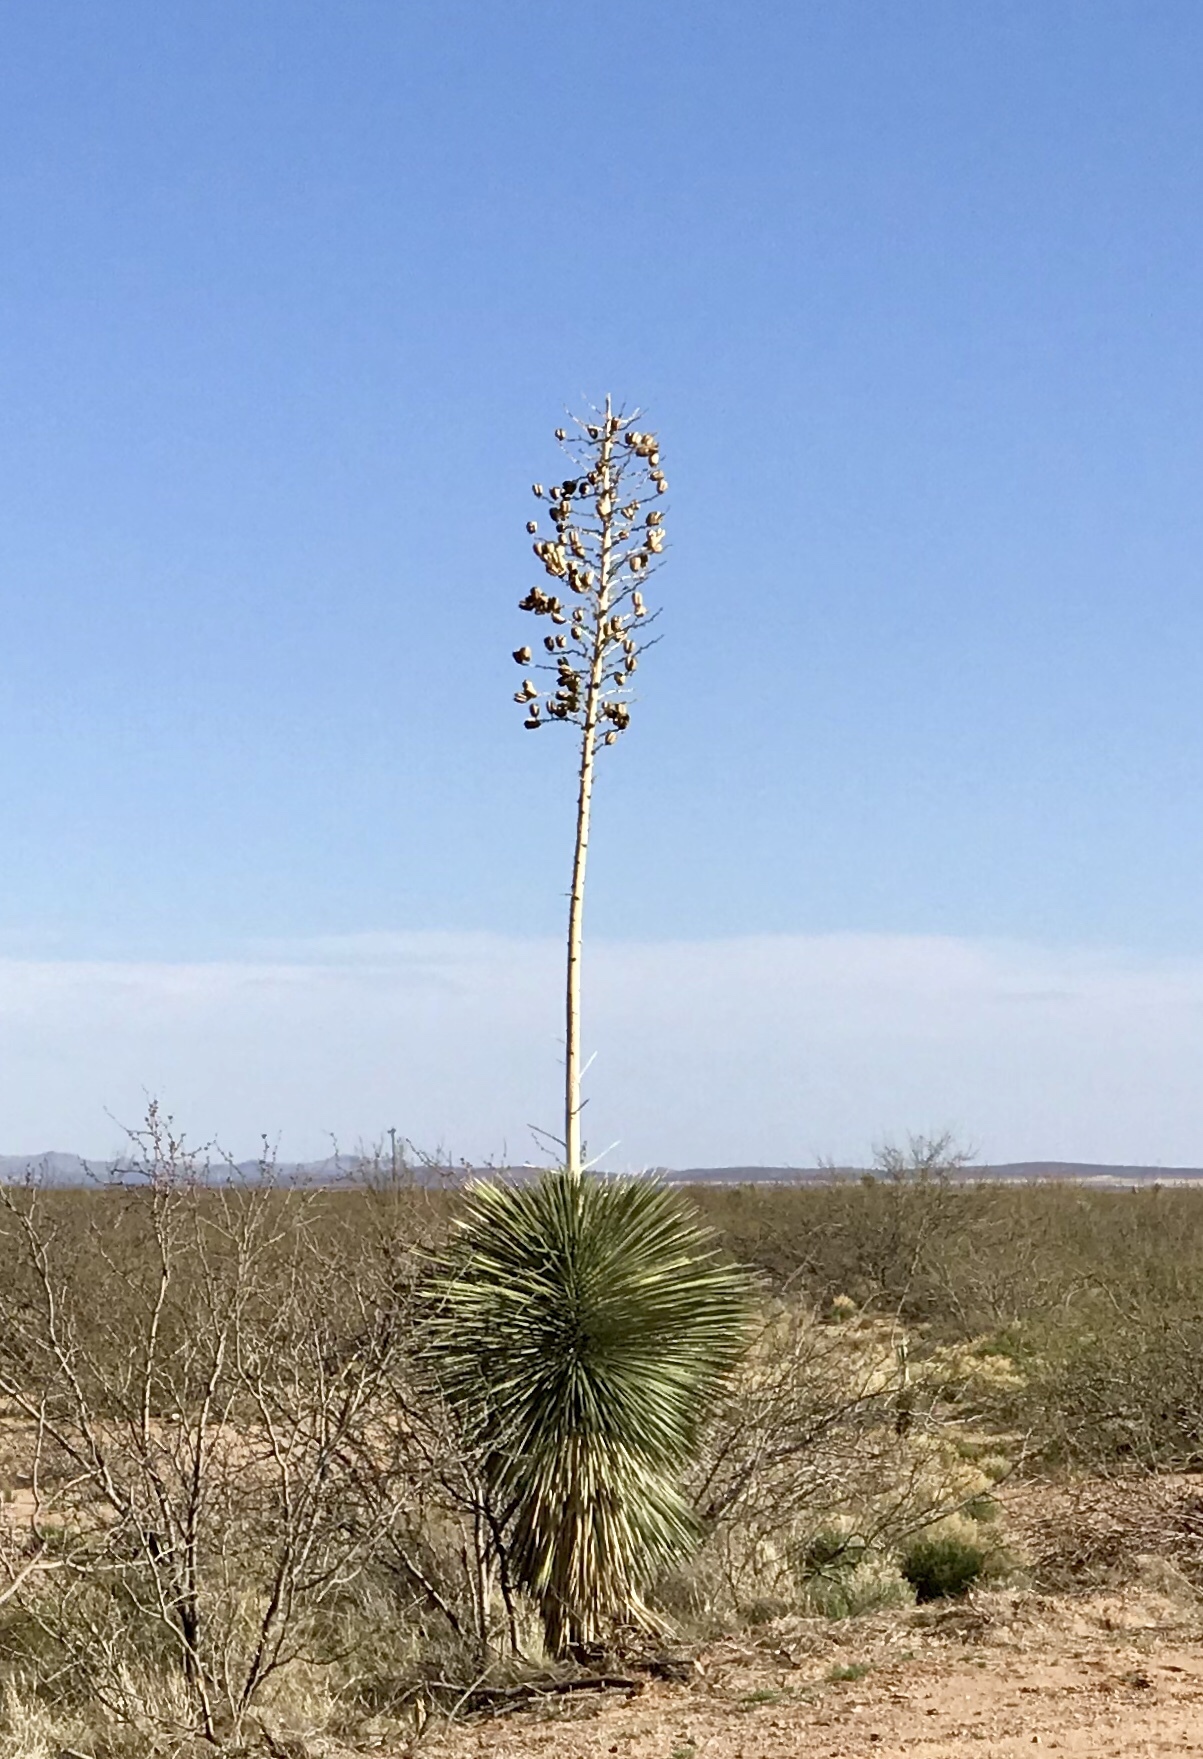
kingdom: Plantae
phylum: Tracheophyta
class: Liliopsida
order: Asparagales
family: Asparagaceae
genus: Yucca
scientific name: Yucca elata
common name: Palmella
